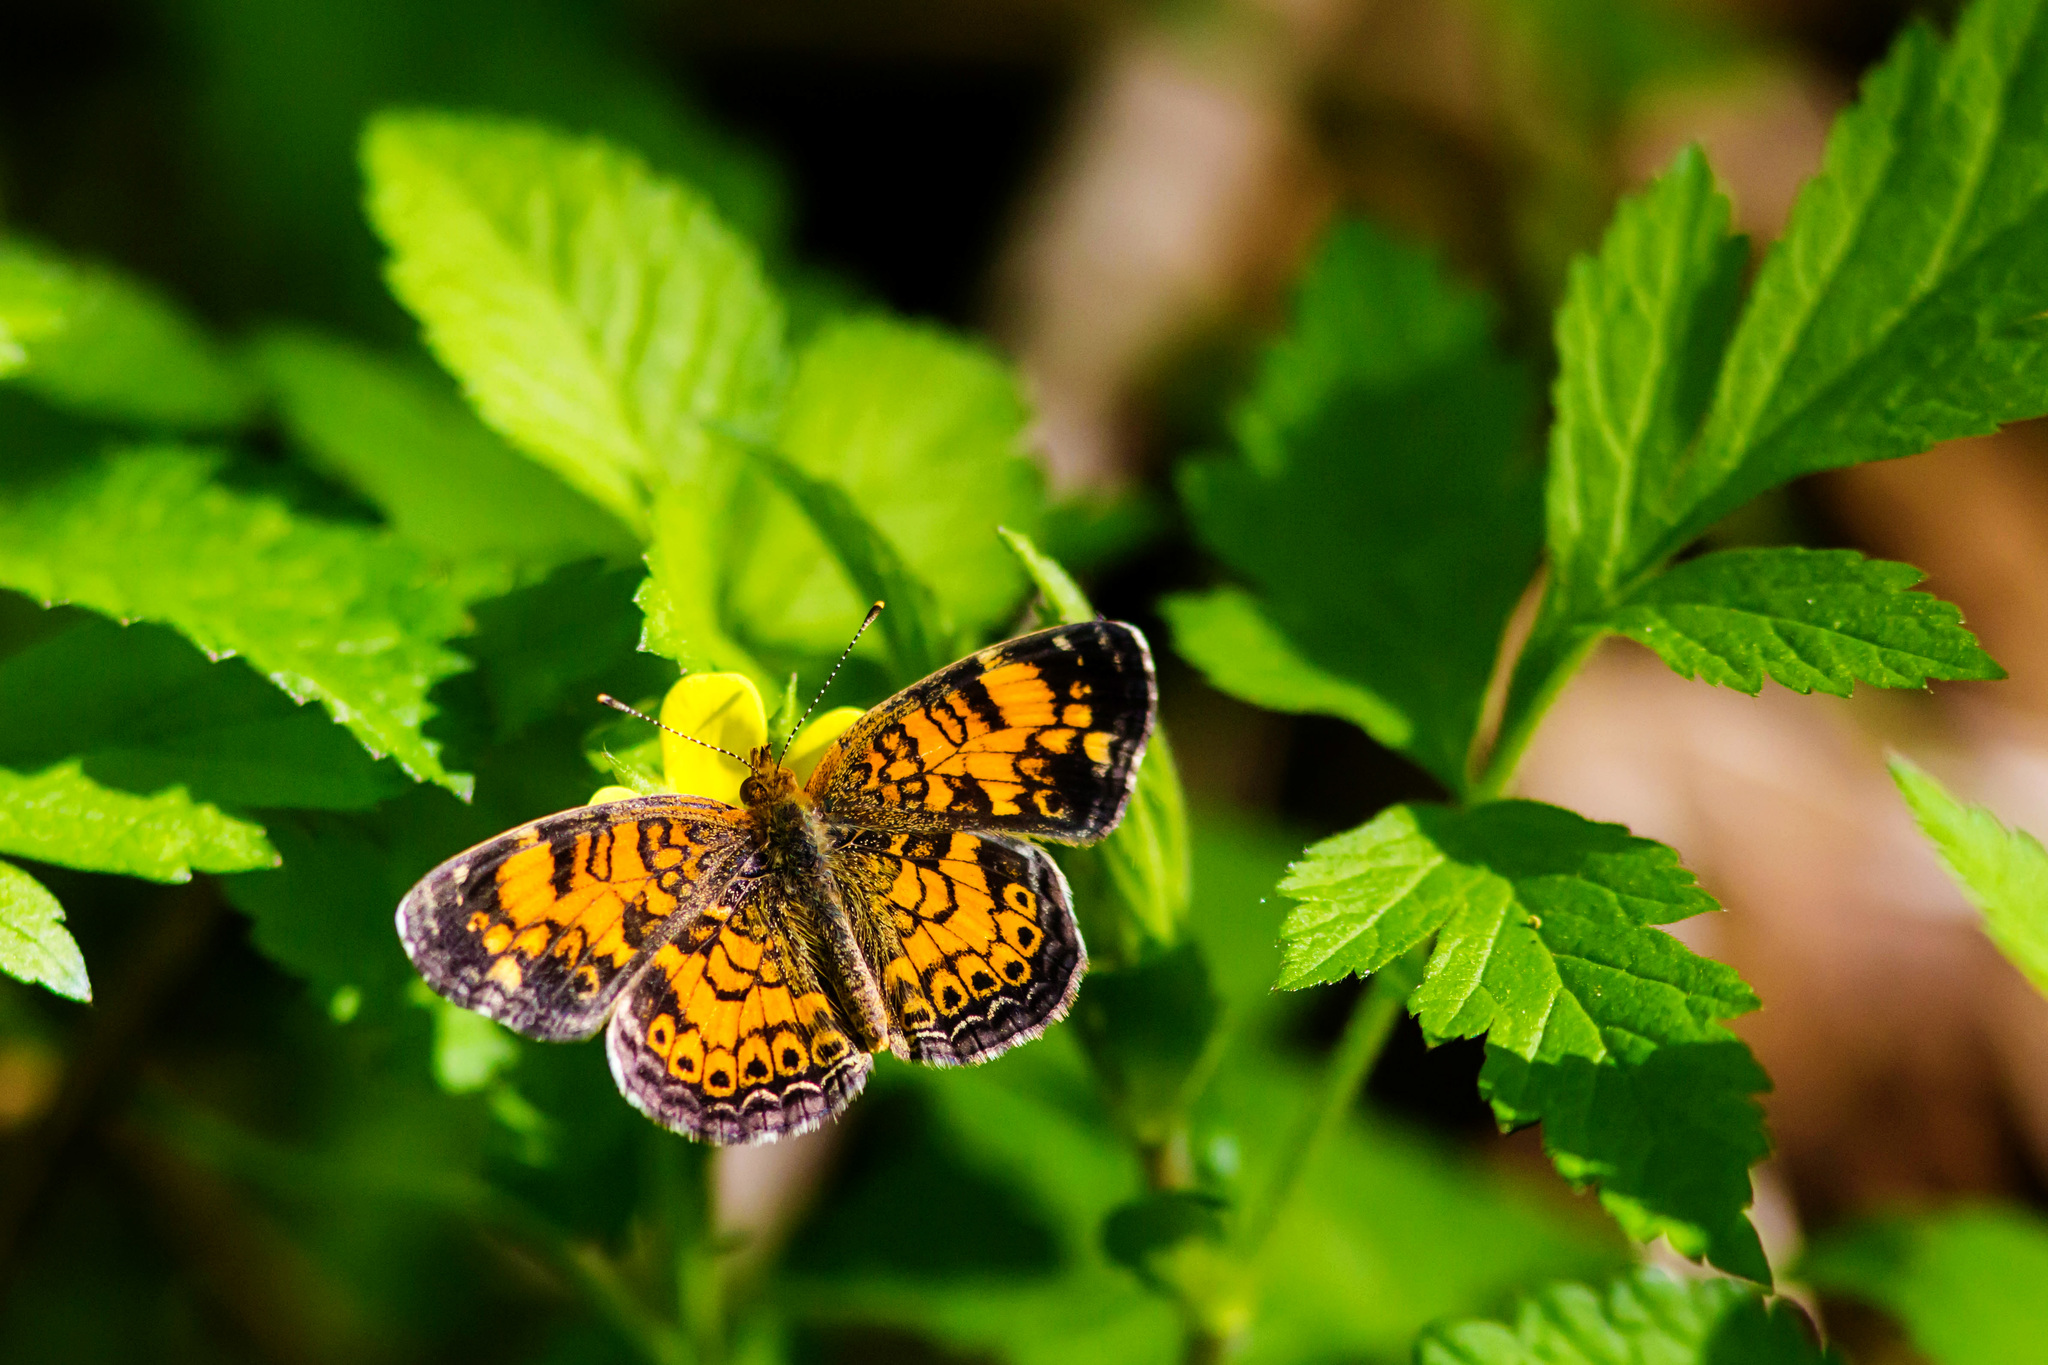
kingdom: Animalia
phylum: Arthropoda
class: Insecta
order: Lepidoptera
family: Nymphalidae
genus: Phyciodes
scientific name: Phyciodes tharos
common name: Pearl crescent
